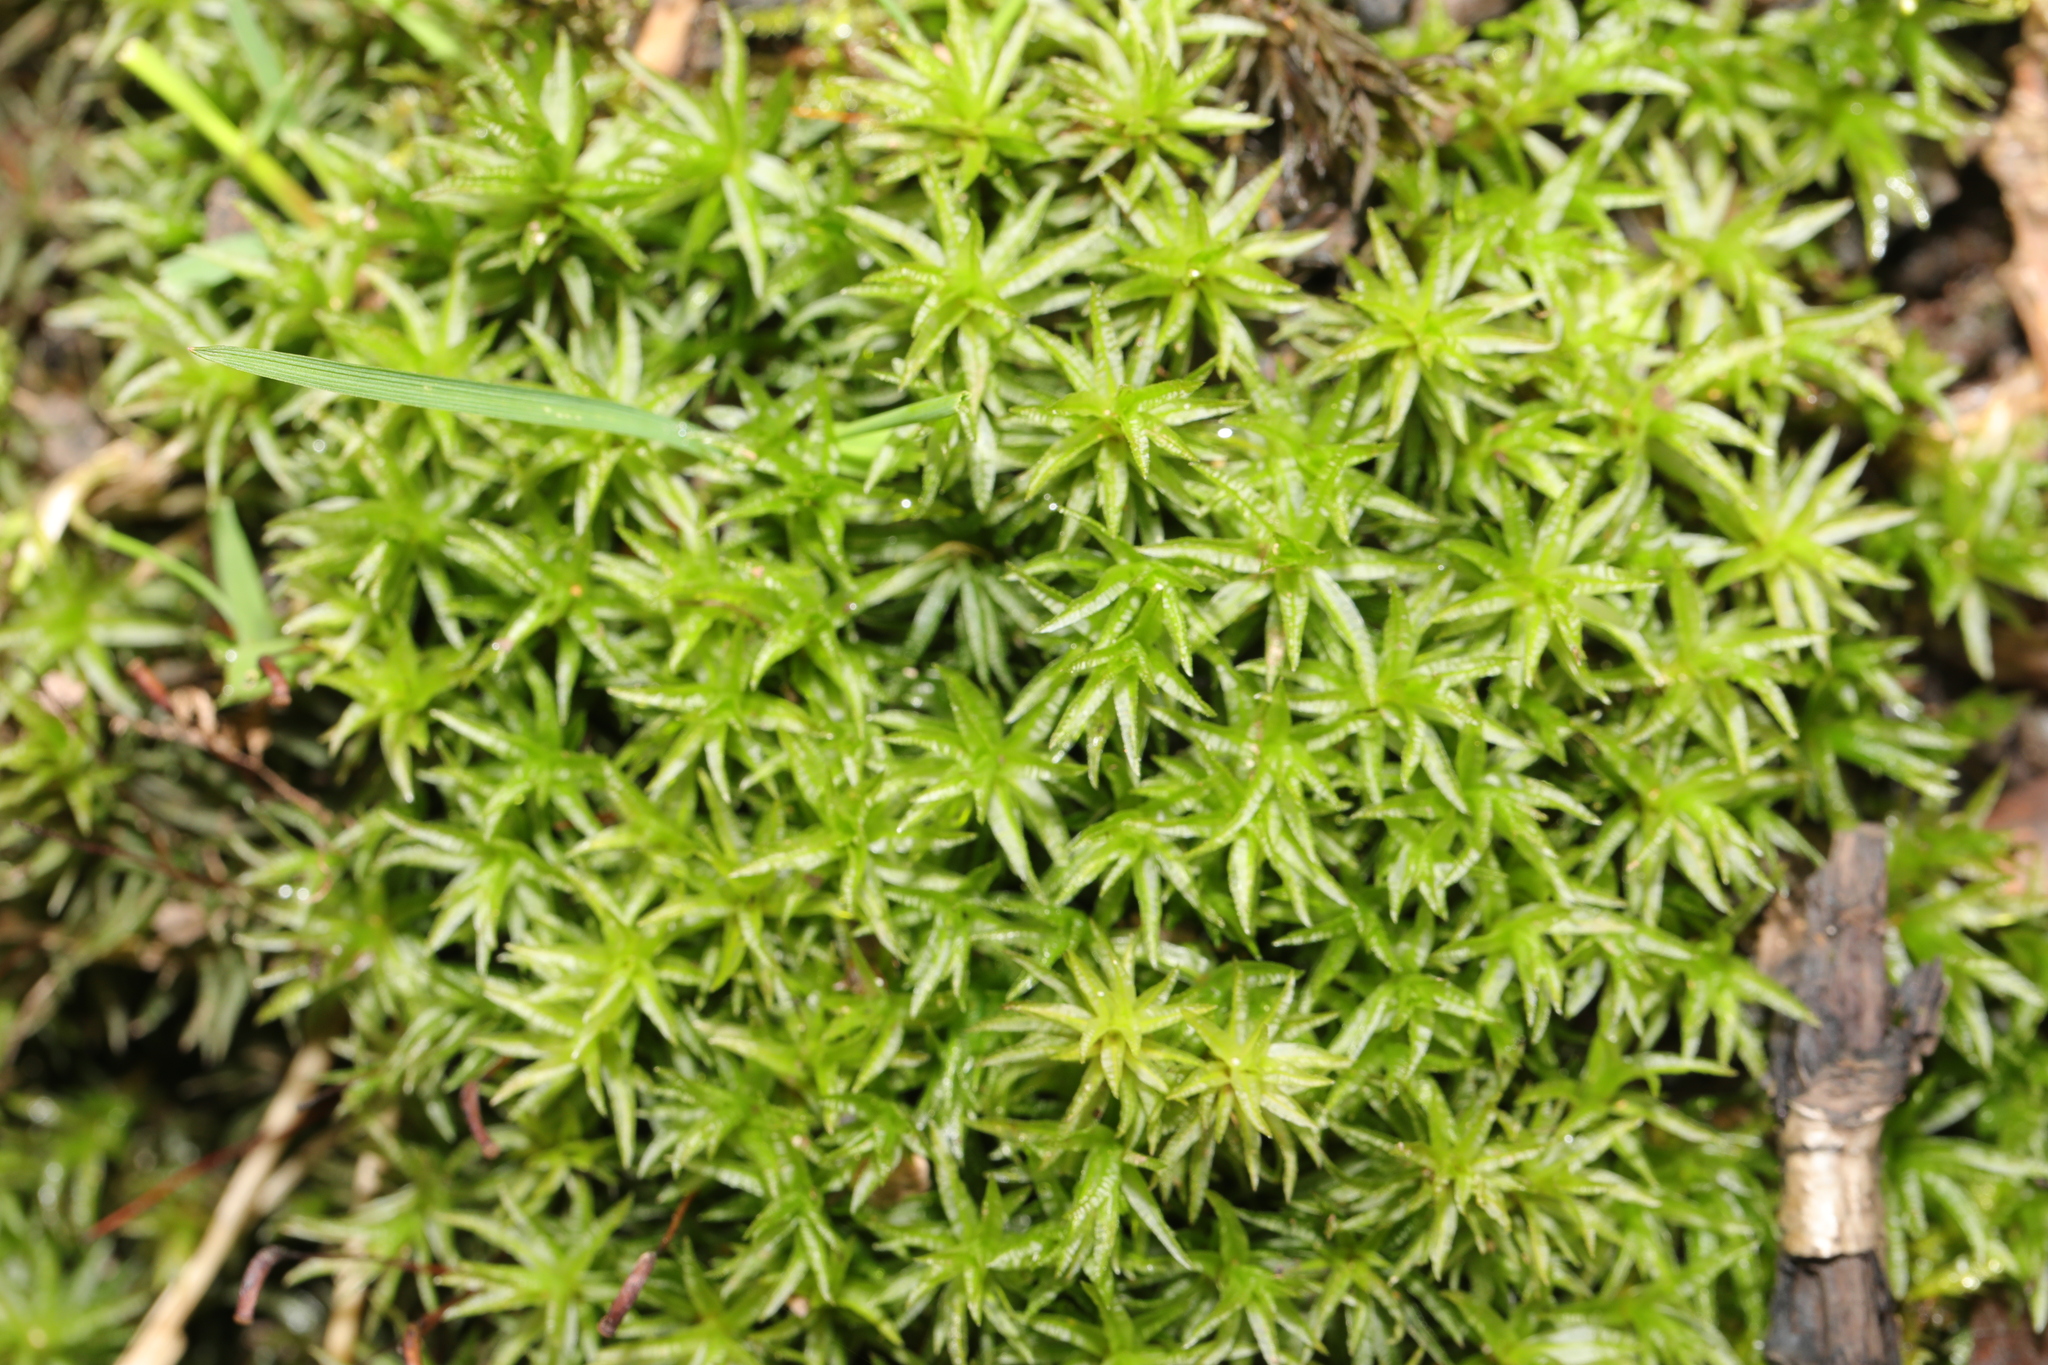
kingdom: Plantae
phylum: Bryophyta
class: Polytrichopsida
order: Polytrichales
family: Polytrichaceae
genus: Atrichum
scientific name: Atrichum undulatum
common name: Common smoothcap
